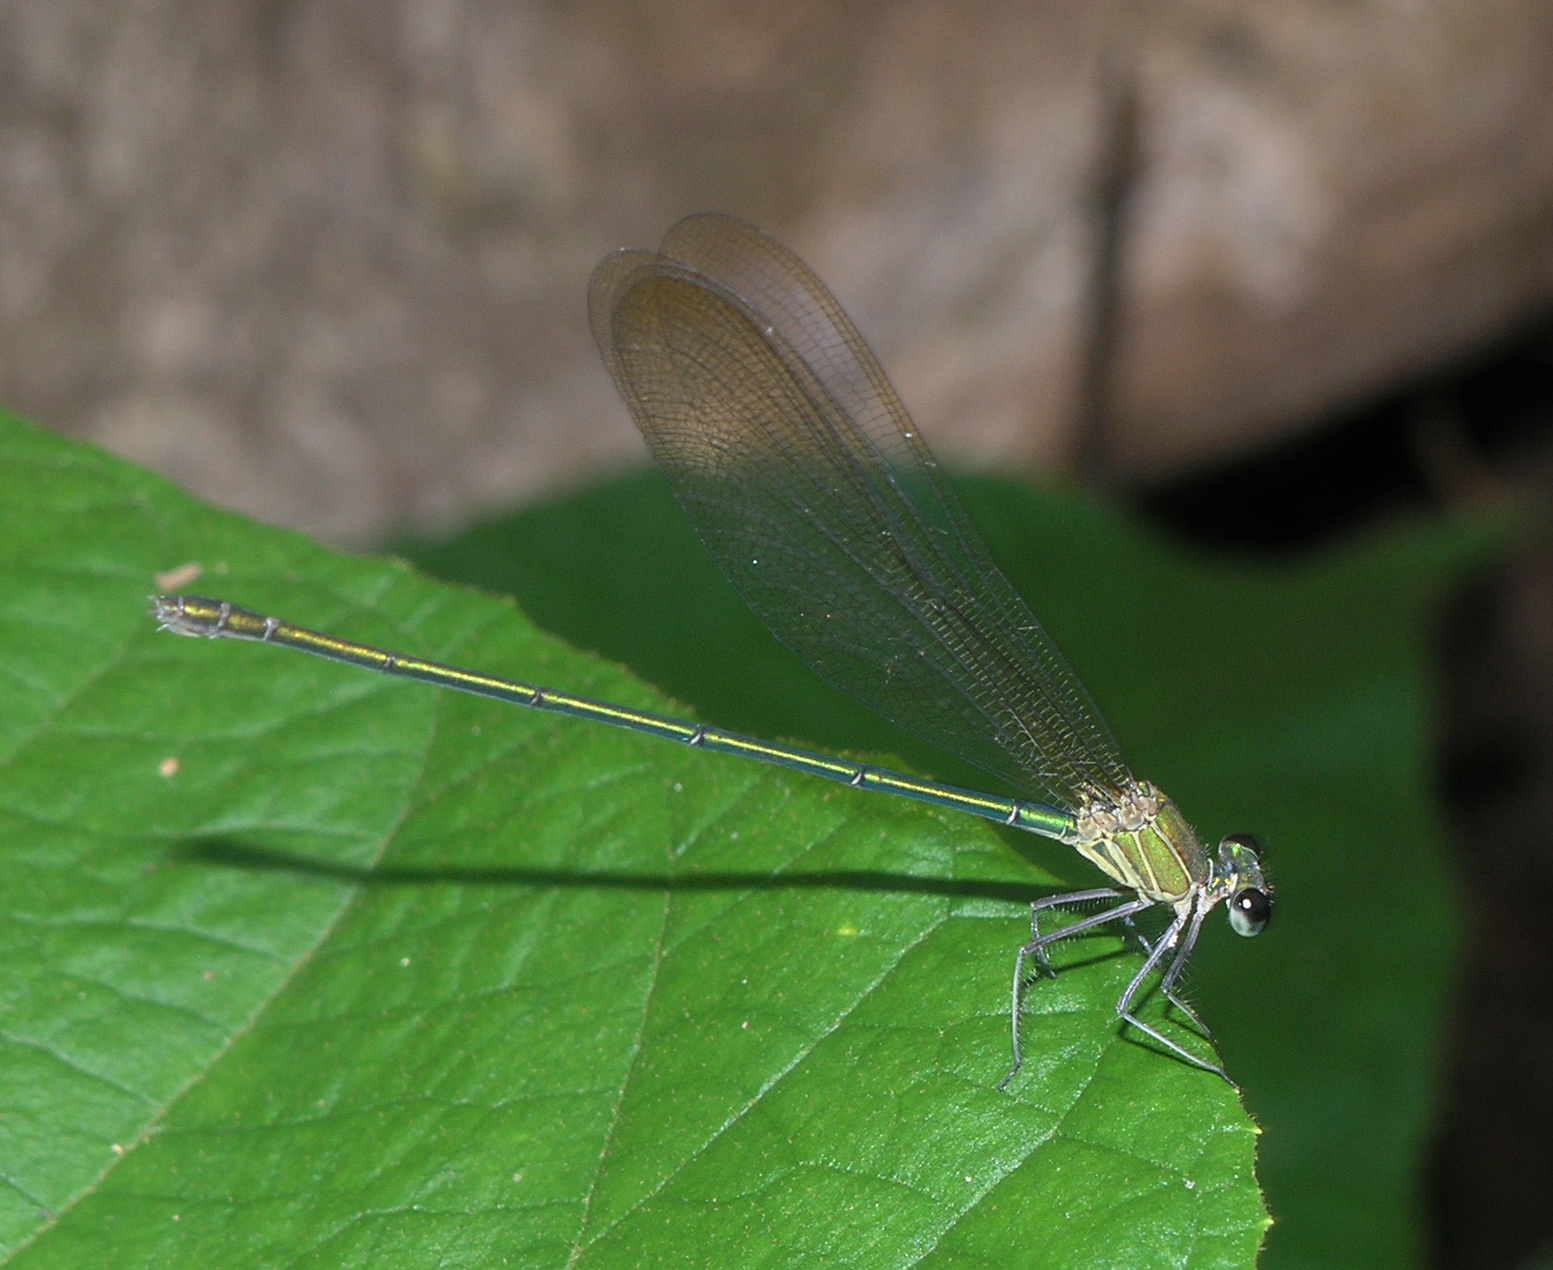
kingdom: Animalia
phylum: Arthropoda
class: Insecta
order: Odonata
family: Calopterygidae
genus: Vestalis
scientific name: Vestalis gracilis
